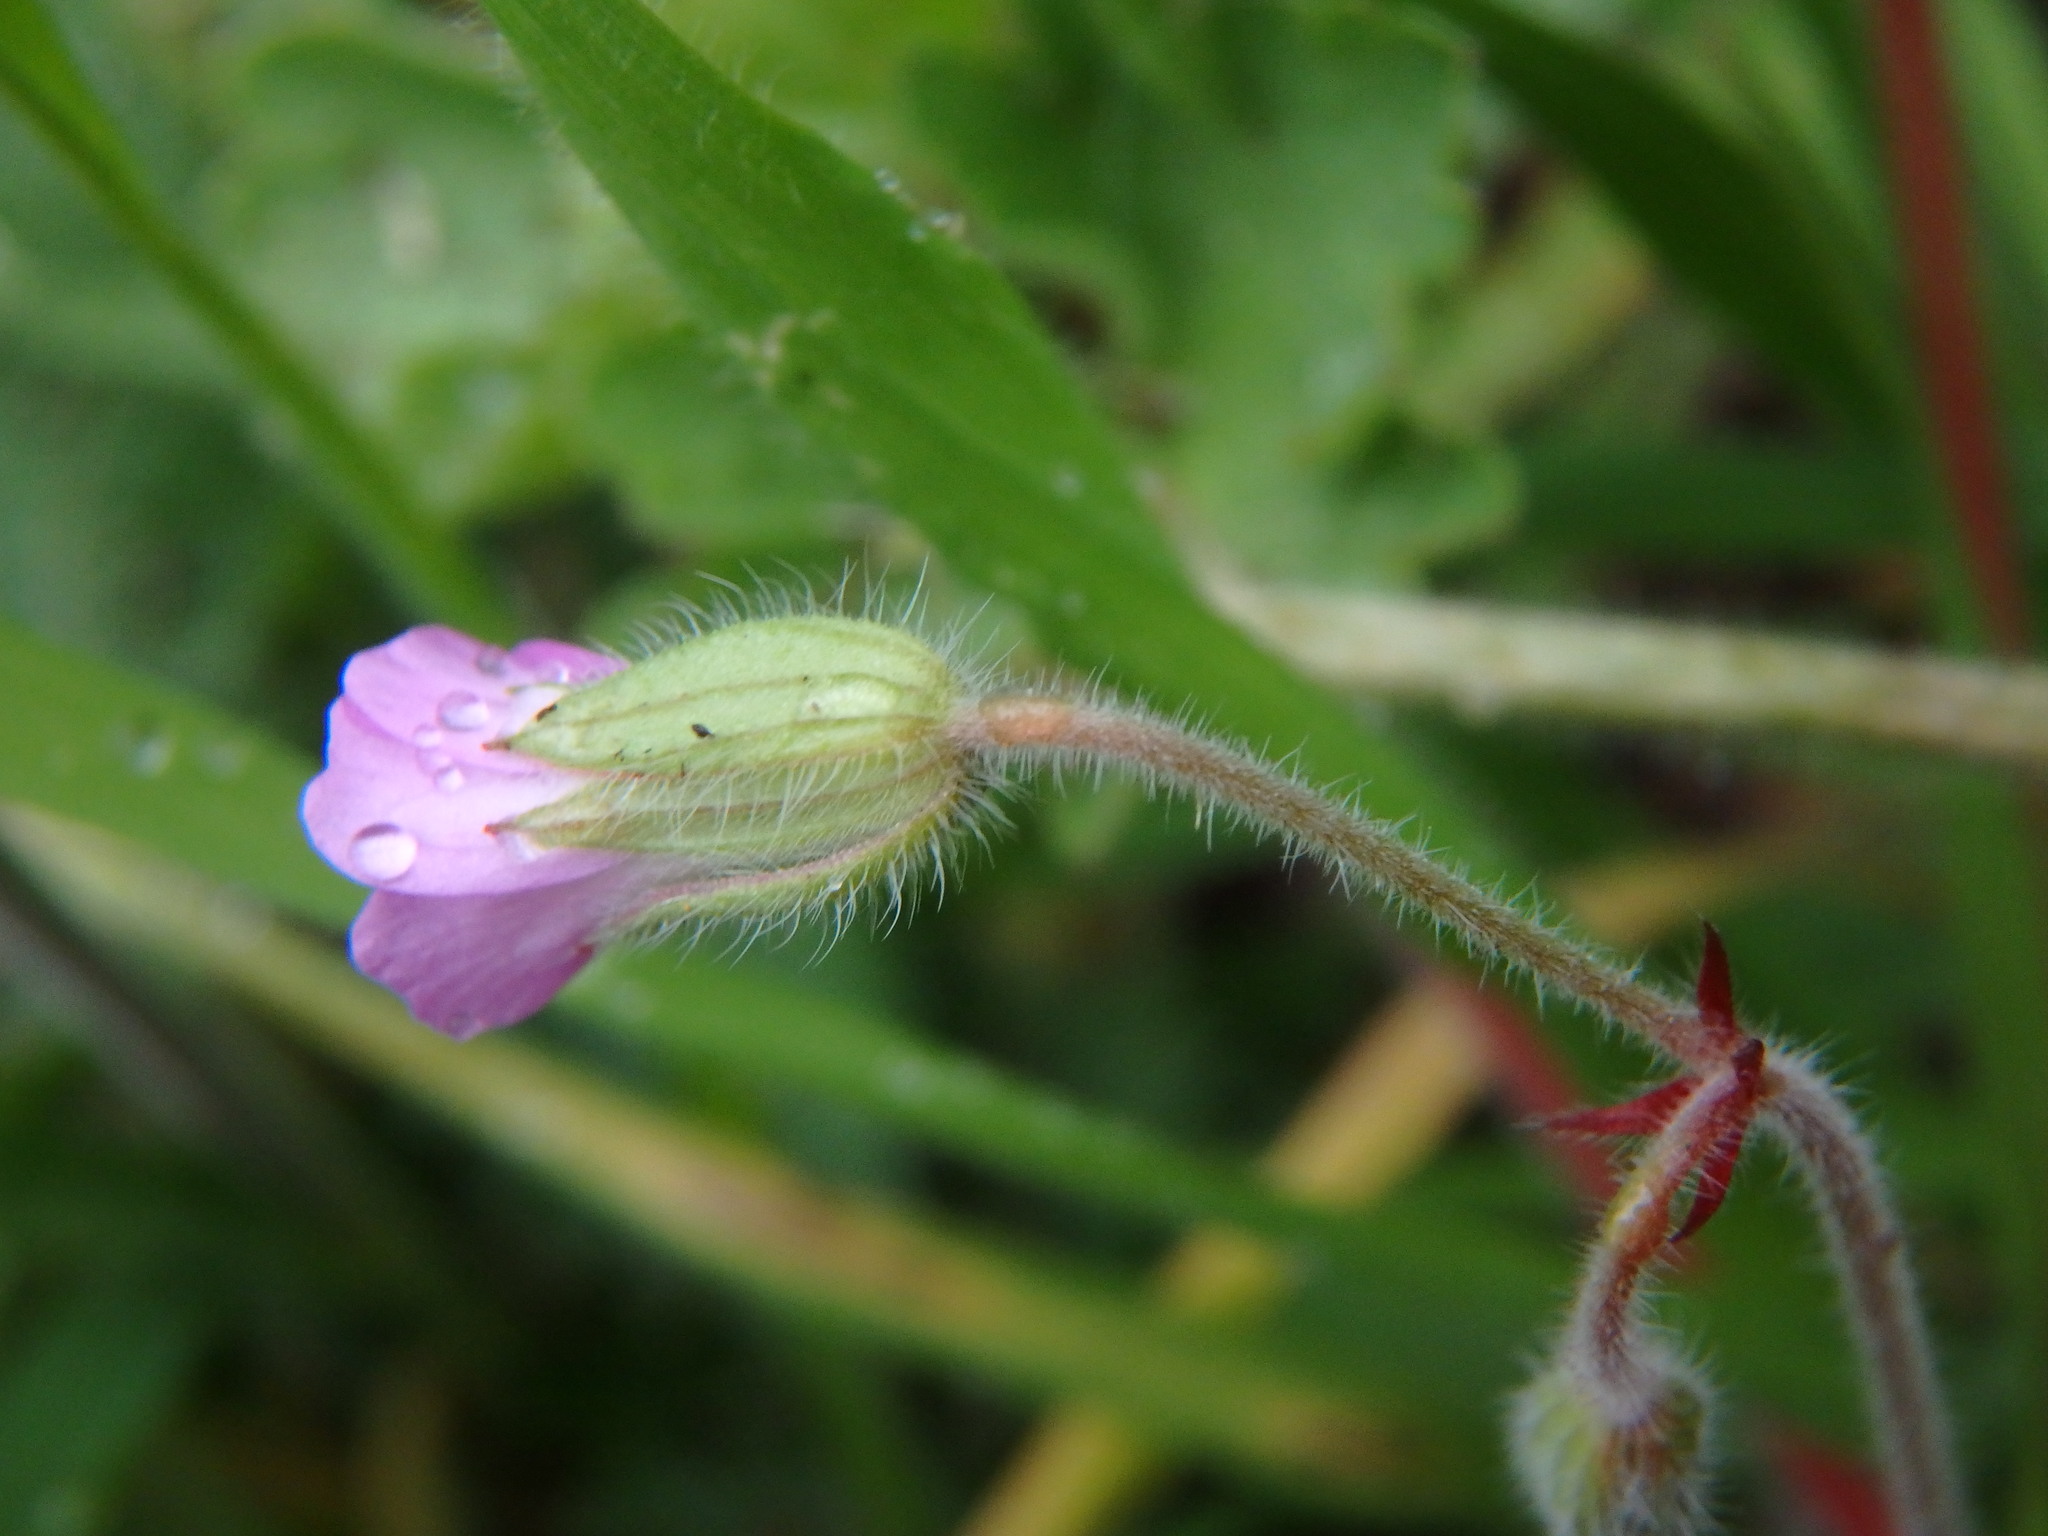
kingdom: Plantae
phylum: Tracheophyta
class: Magnoliopsida
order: Geraniales
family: Geraniaceae
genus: Geranium
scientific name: Geranium rotundifolium
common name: Round-leaved crane's-bill
